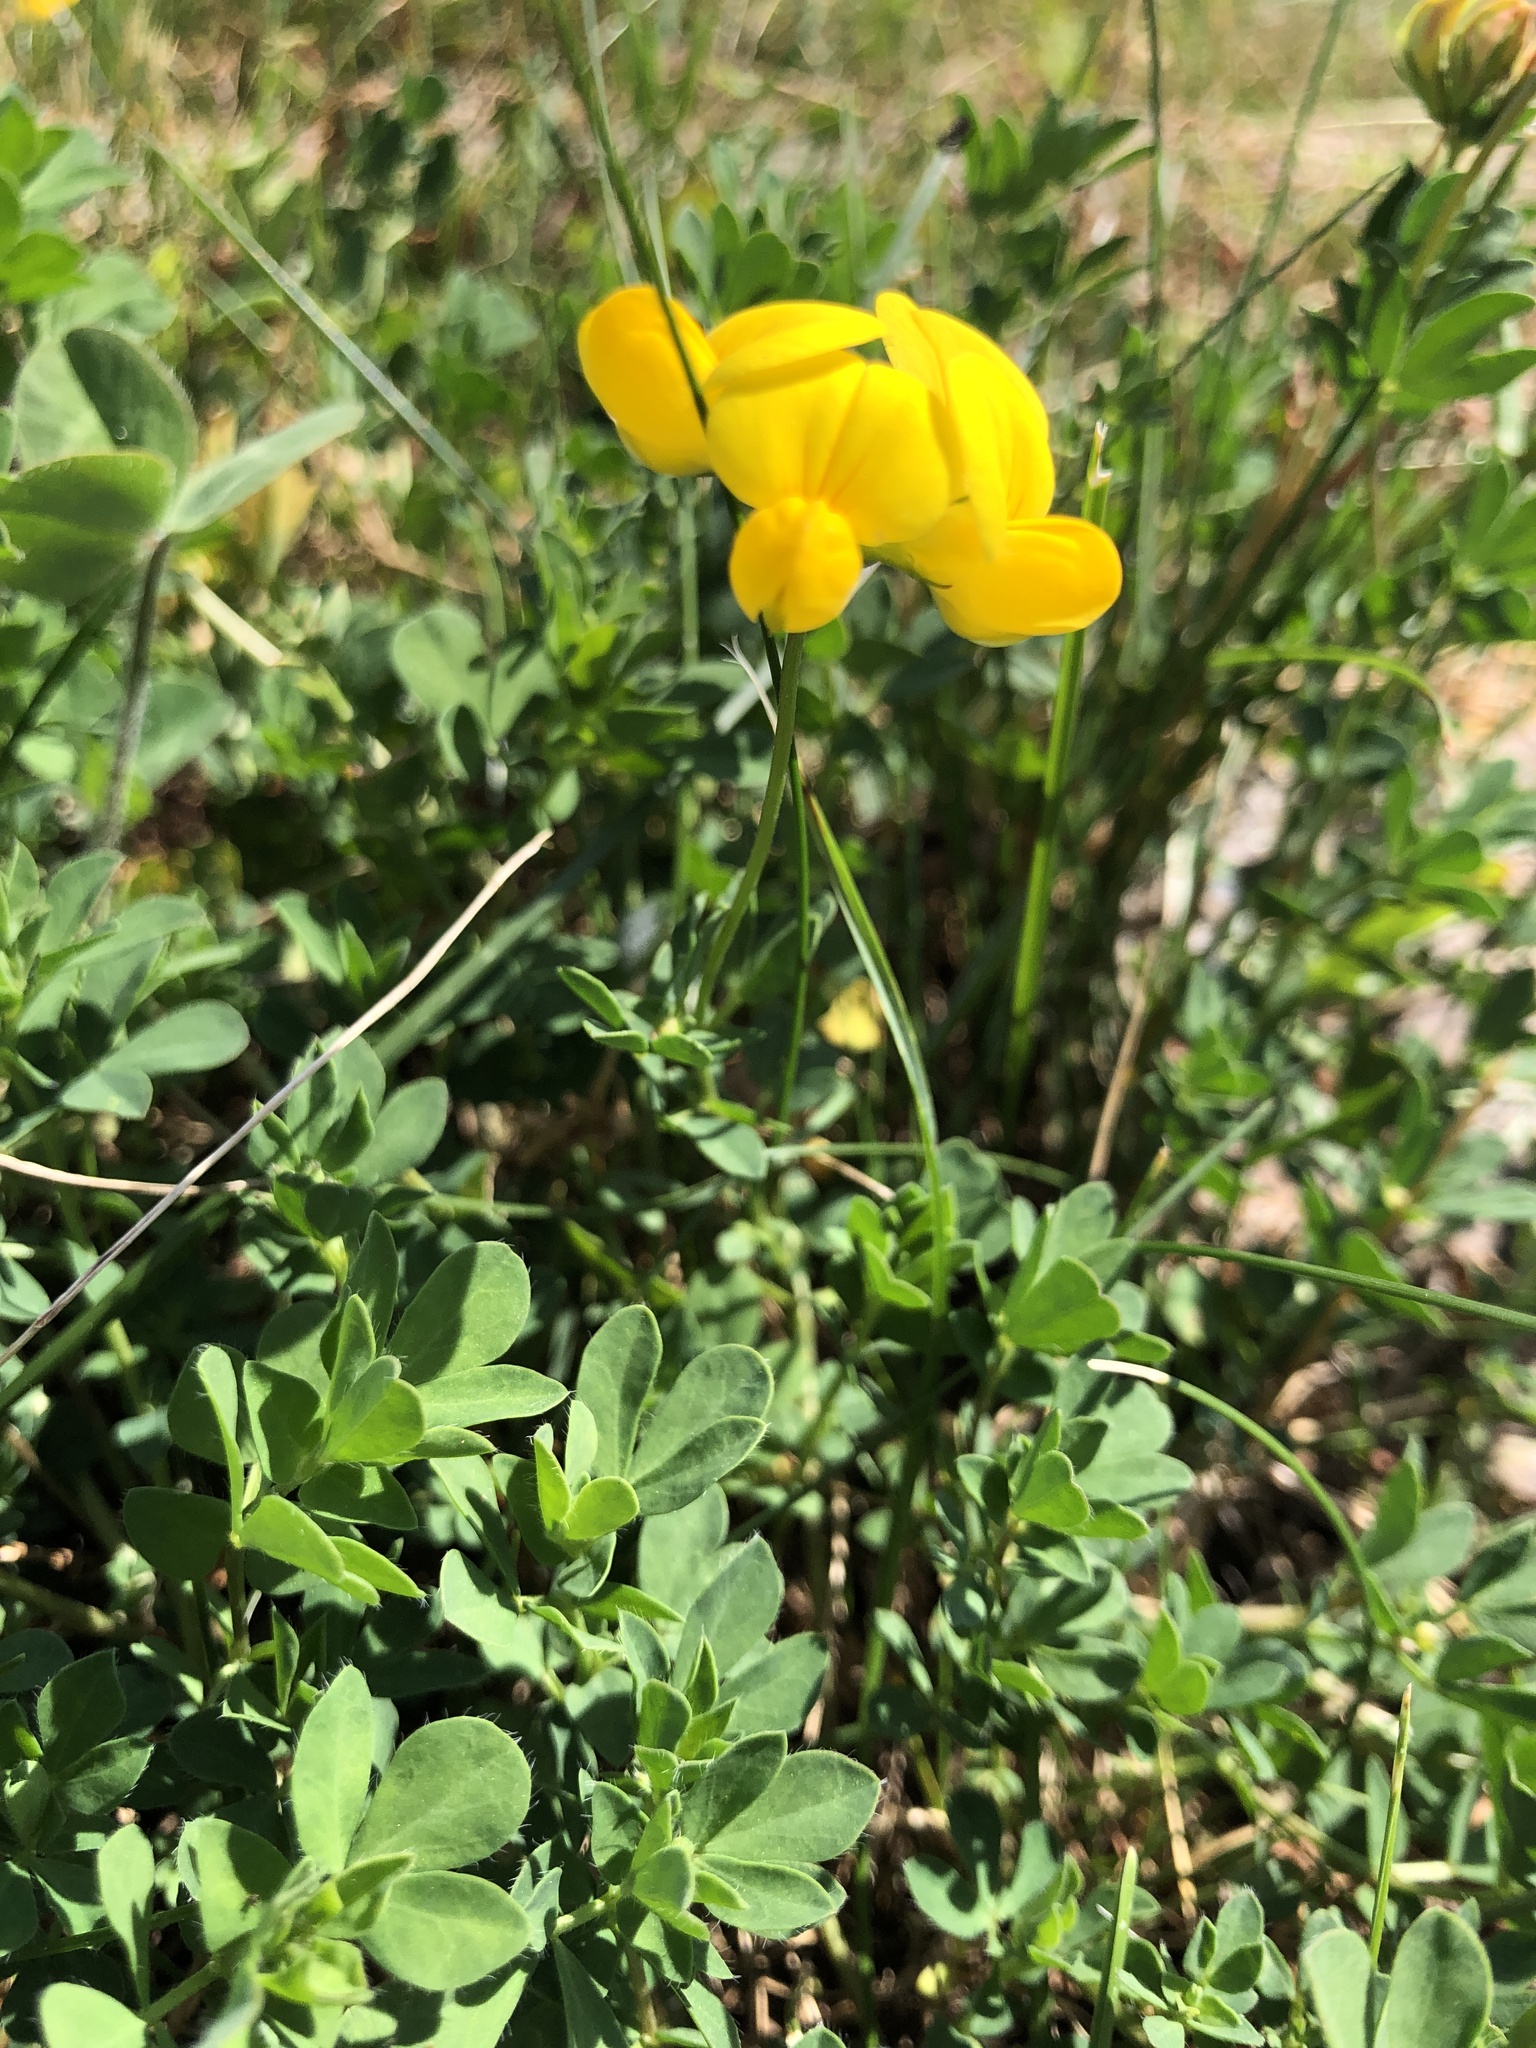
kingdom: Plantae
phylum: Tracheophyta
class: Magnoliopsida
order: Fabales
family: Fabaceae
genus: Lotus
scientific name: Lotus corniculatus
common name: Common bird's-foot-trefoil
